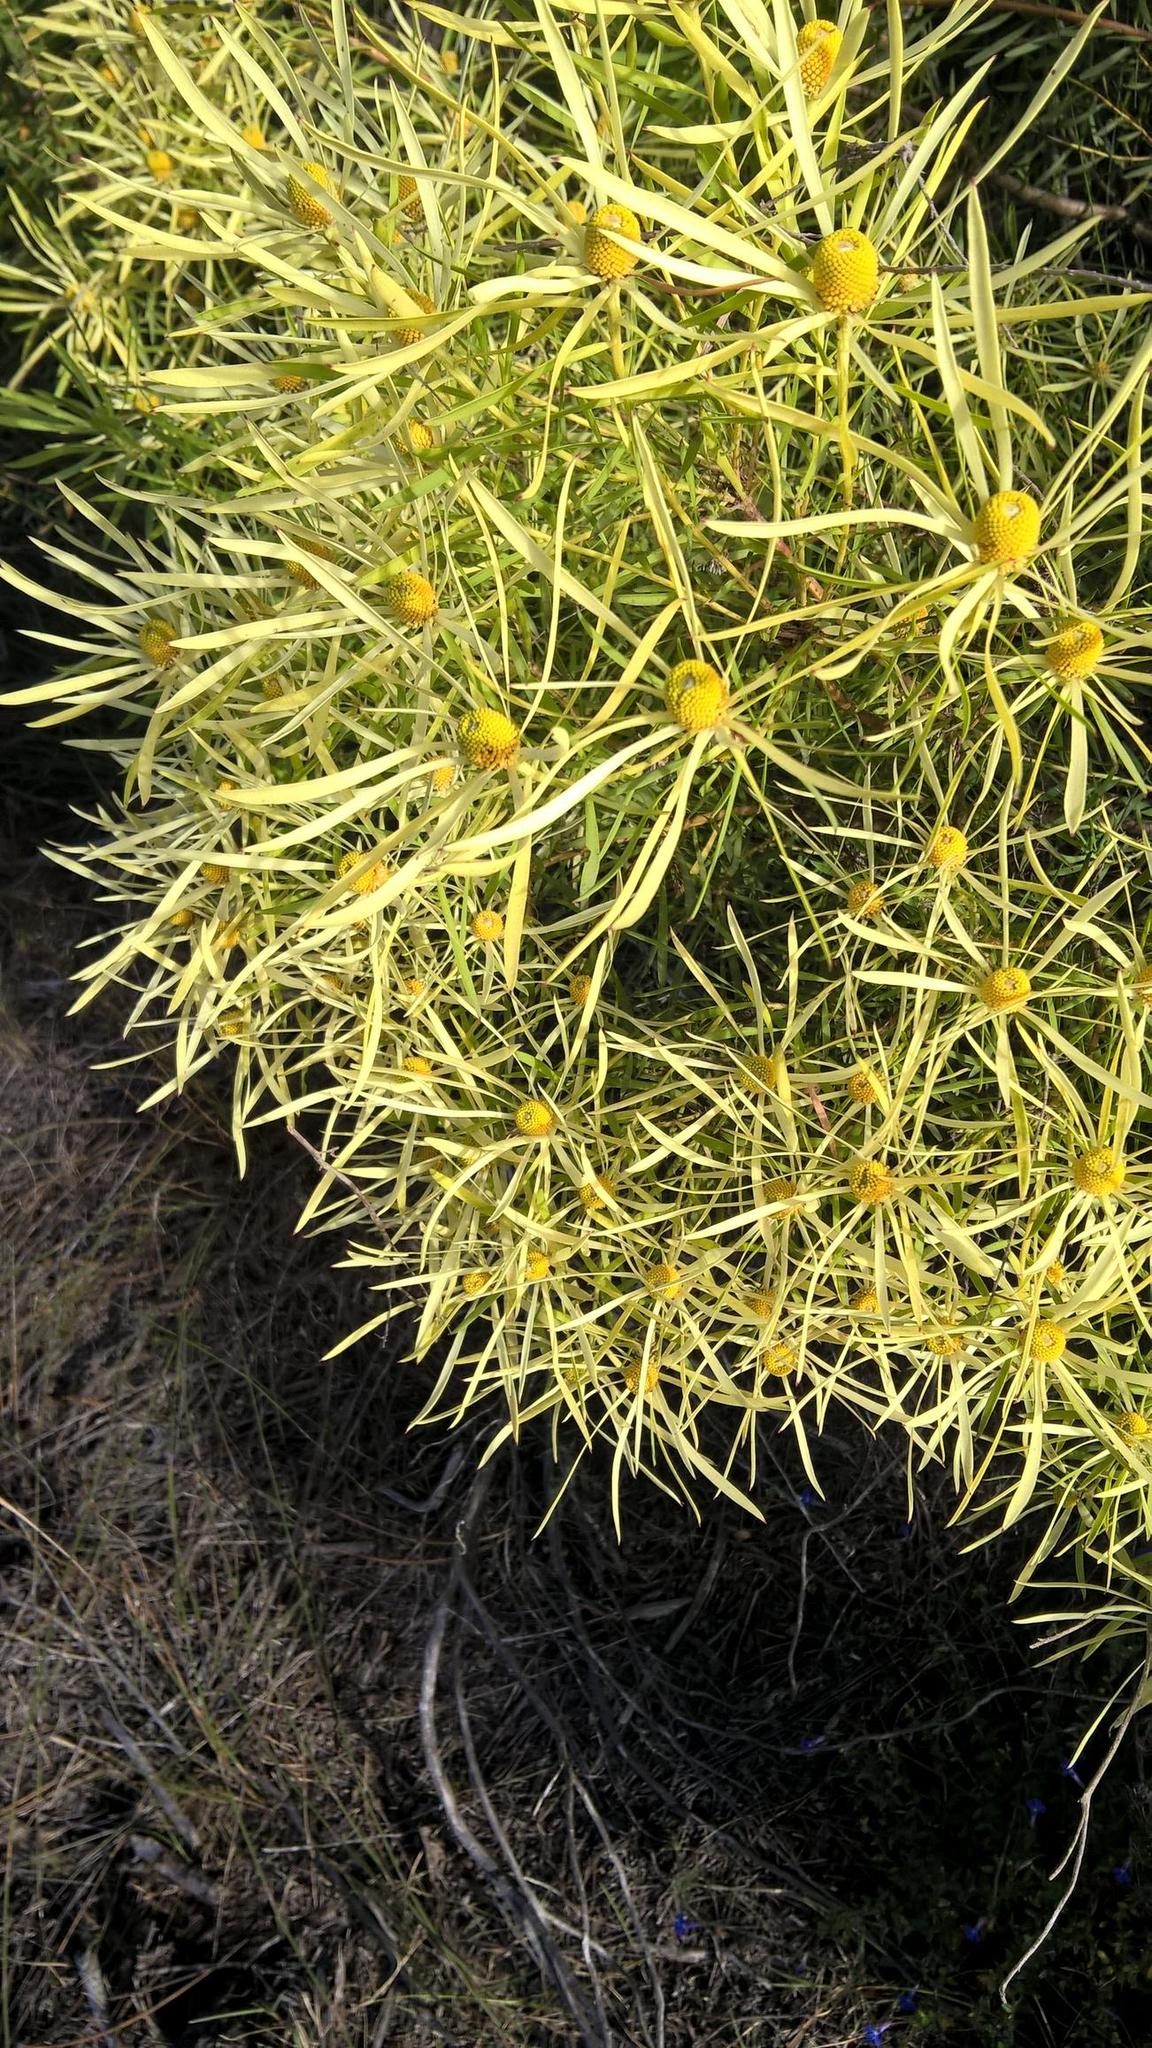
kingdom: Plantae
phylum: Tracheophyta
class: Magnoliopsida
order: Proteales
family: Proteaceae
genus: Leucadendron
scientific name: Leucadendron salignum
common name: Common sunshine conebush
